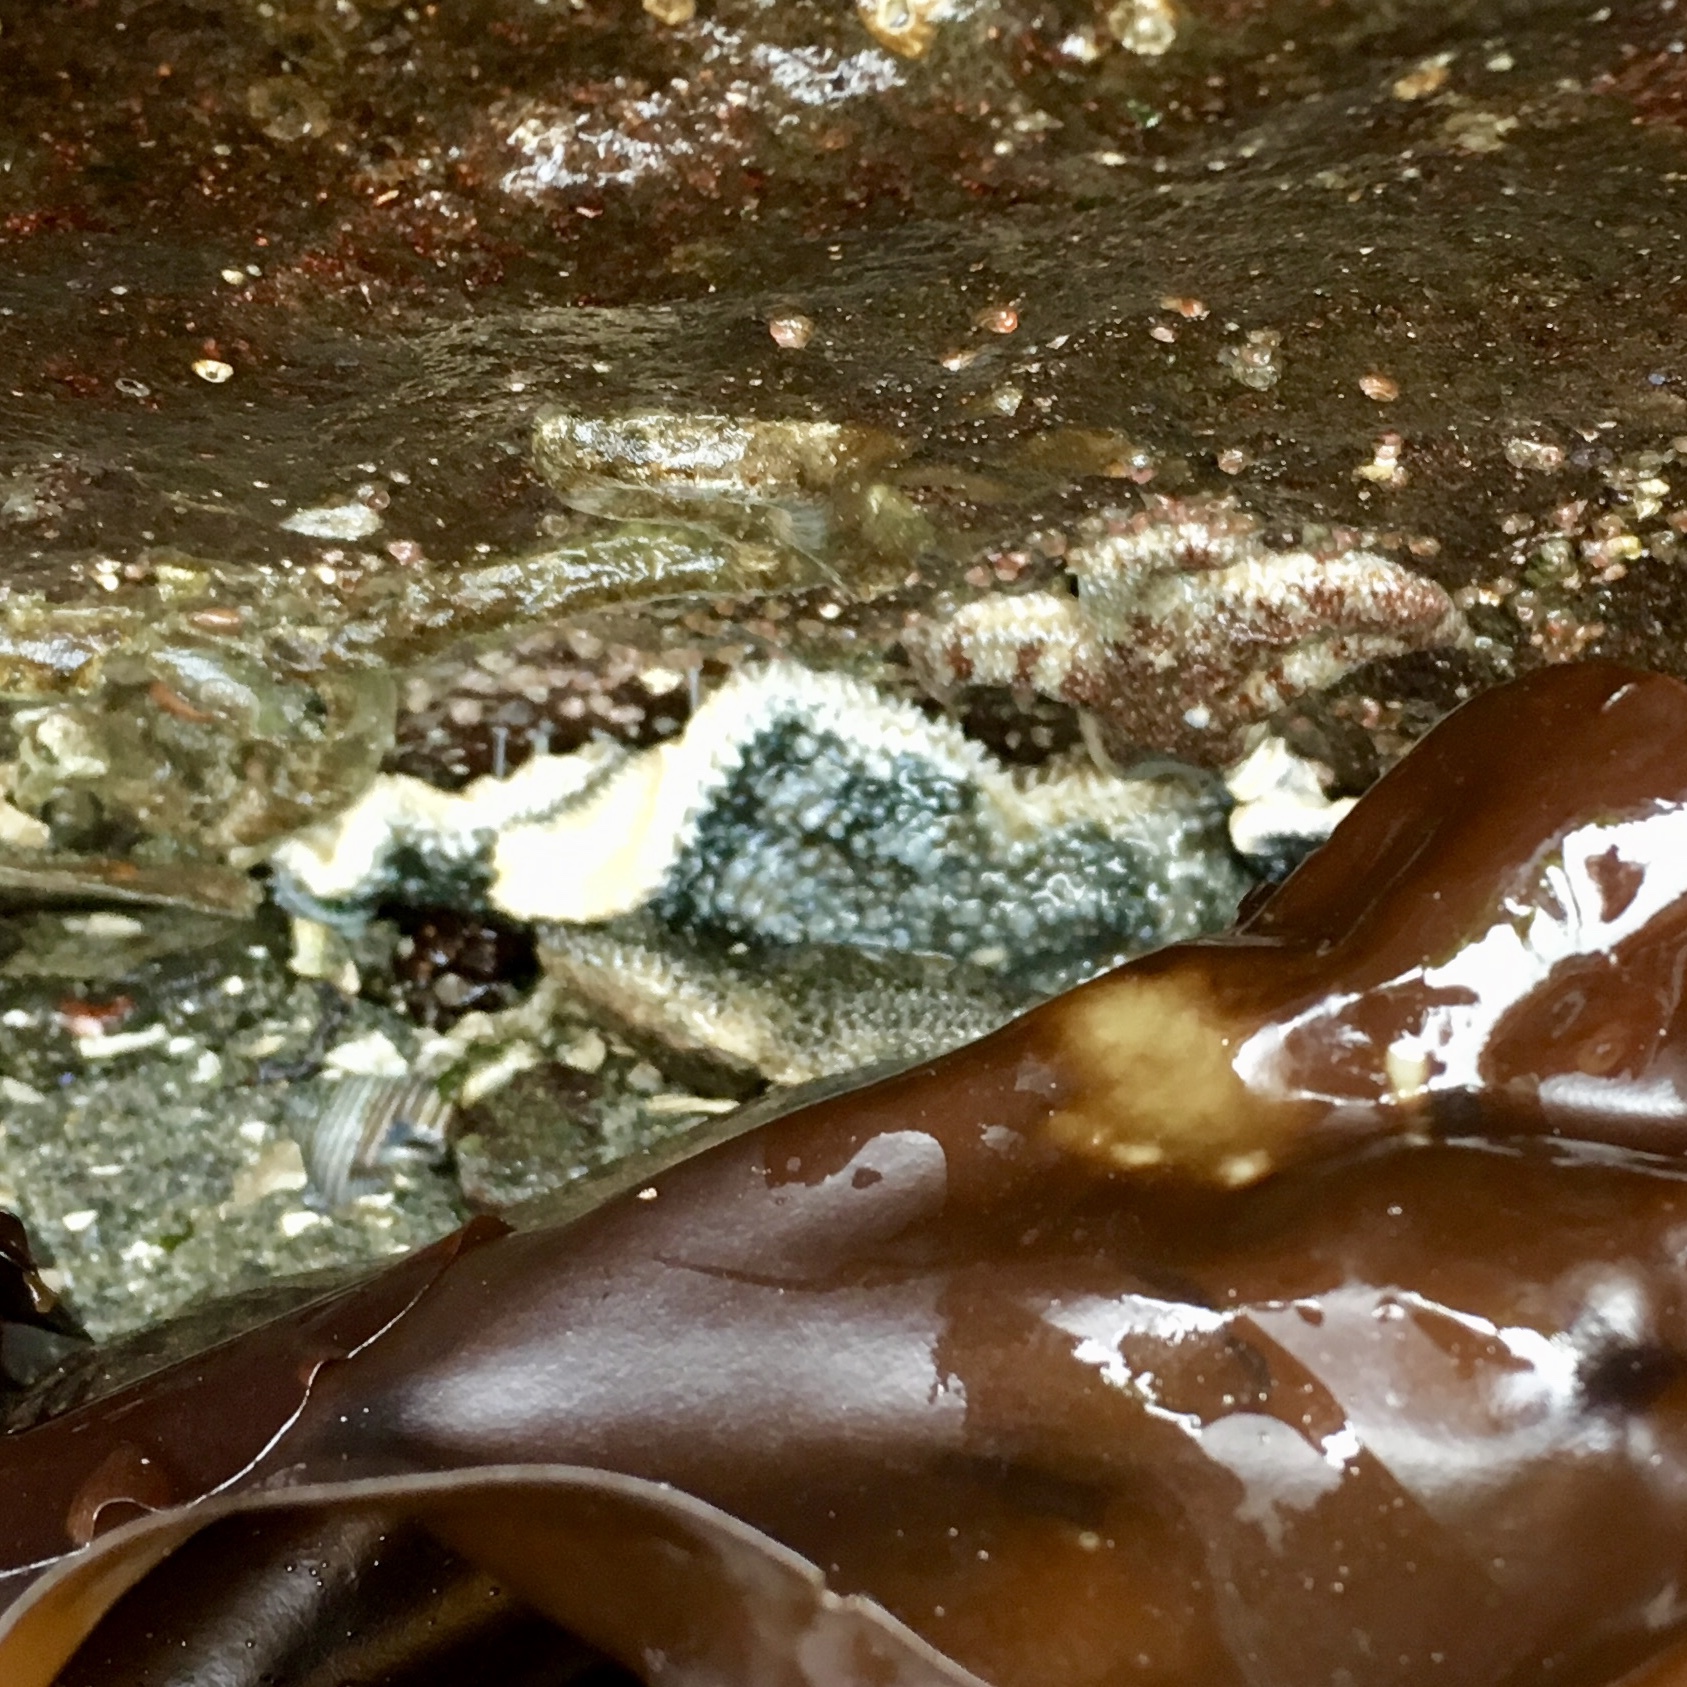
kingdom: Animalia
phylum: Echinodermata
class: Asteroidea
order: Forcipulatida
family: Asteriidae
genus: Evasterias
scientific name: Evasterias troschelii
